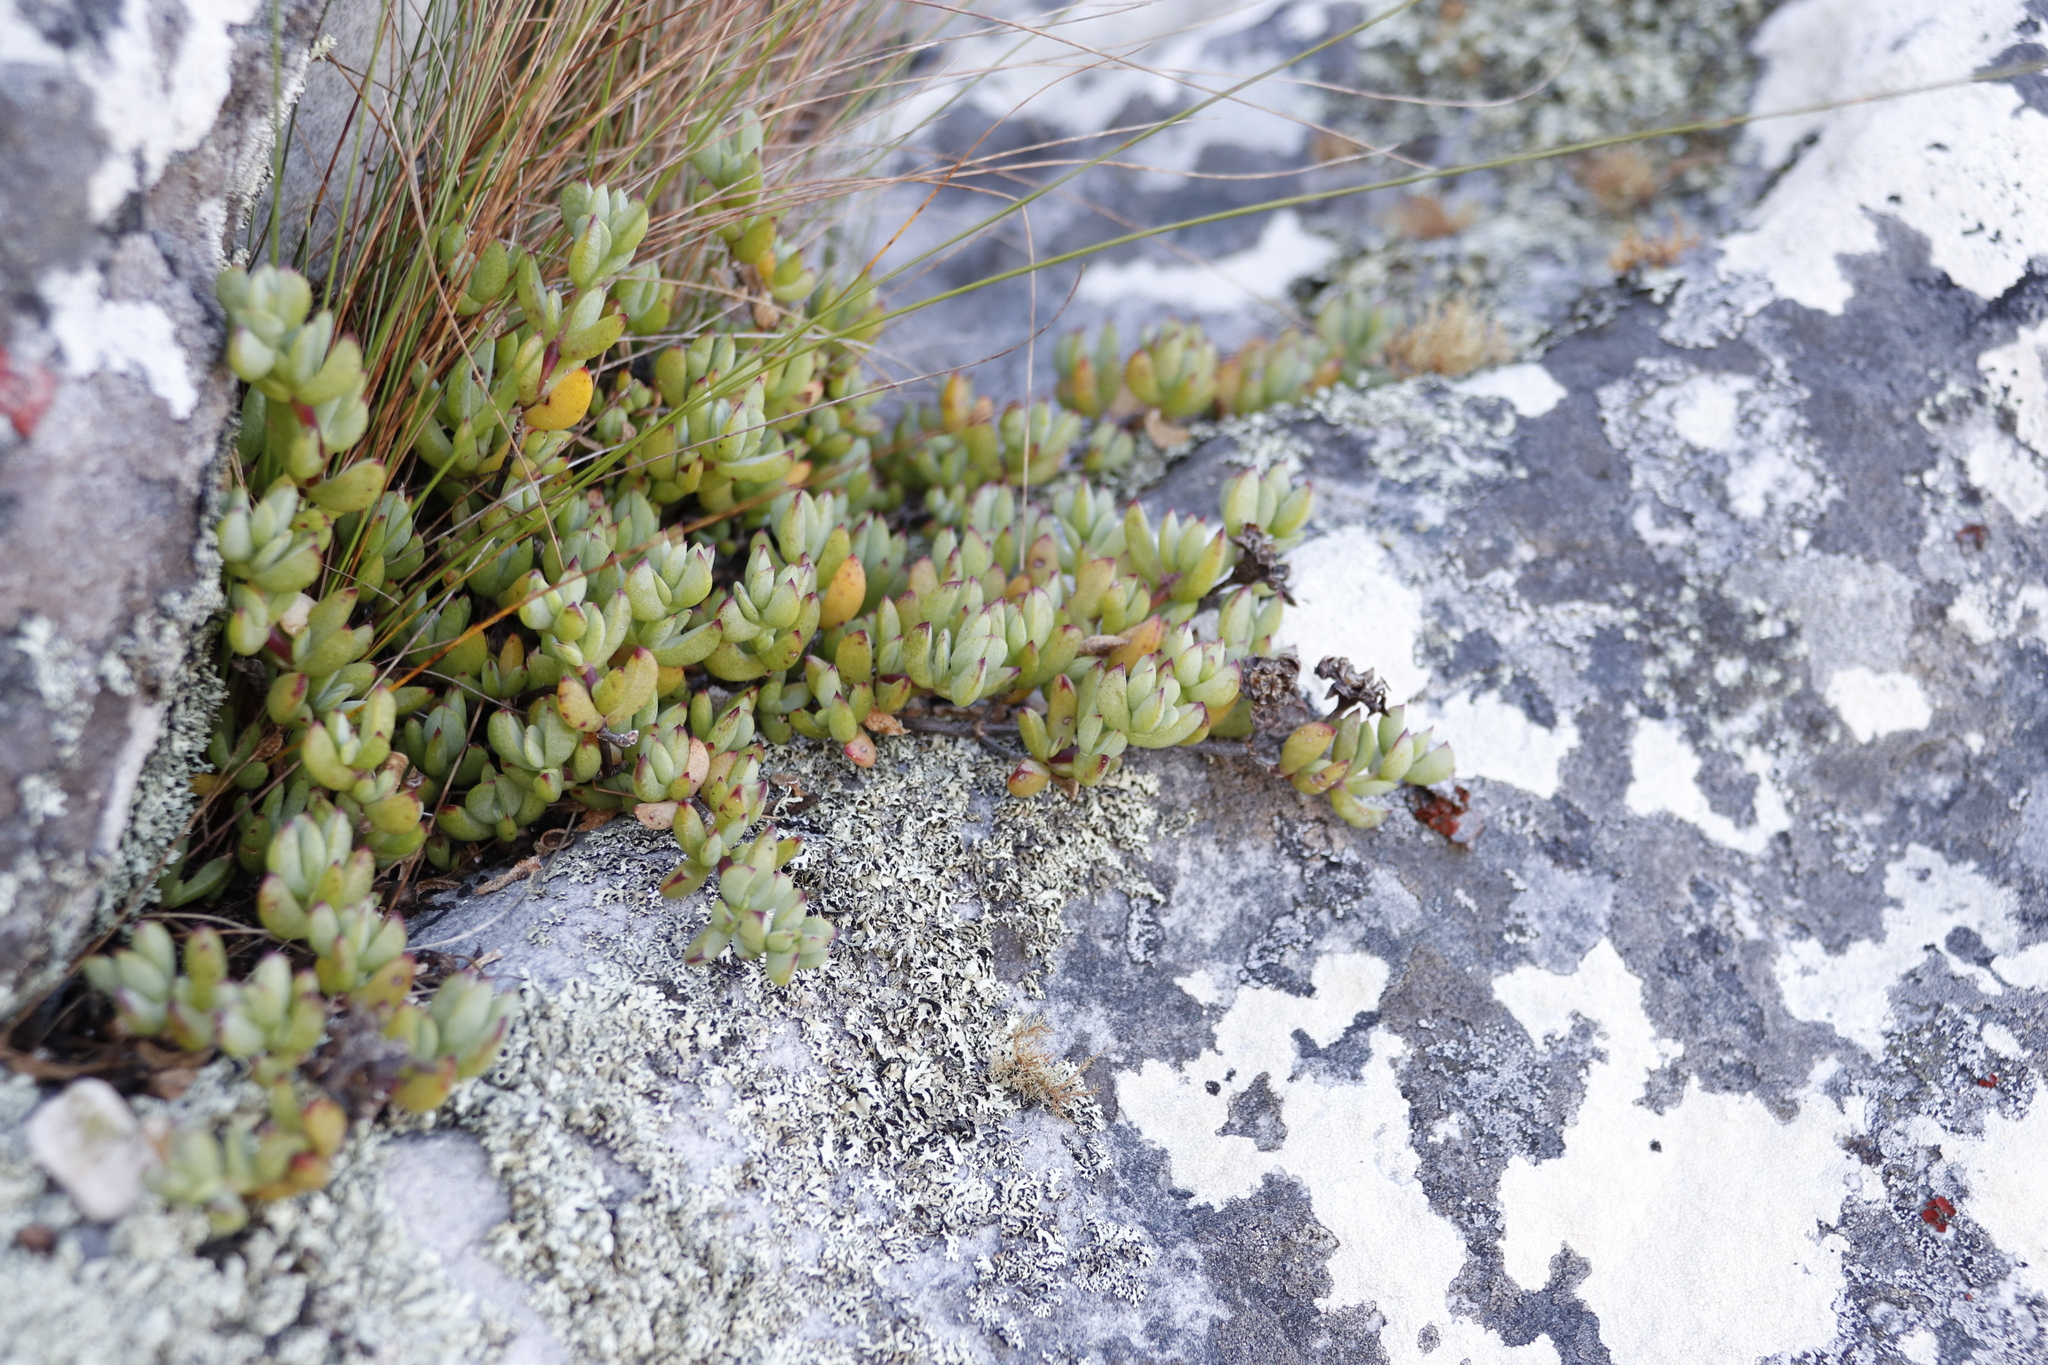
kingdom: Plantae
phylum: Tracheophyta
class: Magnoliopsida
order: Caryophyllales
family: Aizoaceae
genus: Oscularia
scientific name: Oscularia falciformis
